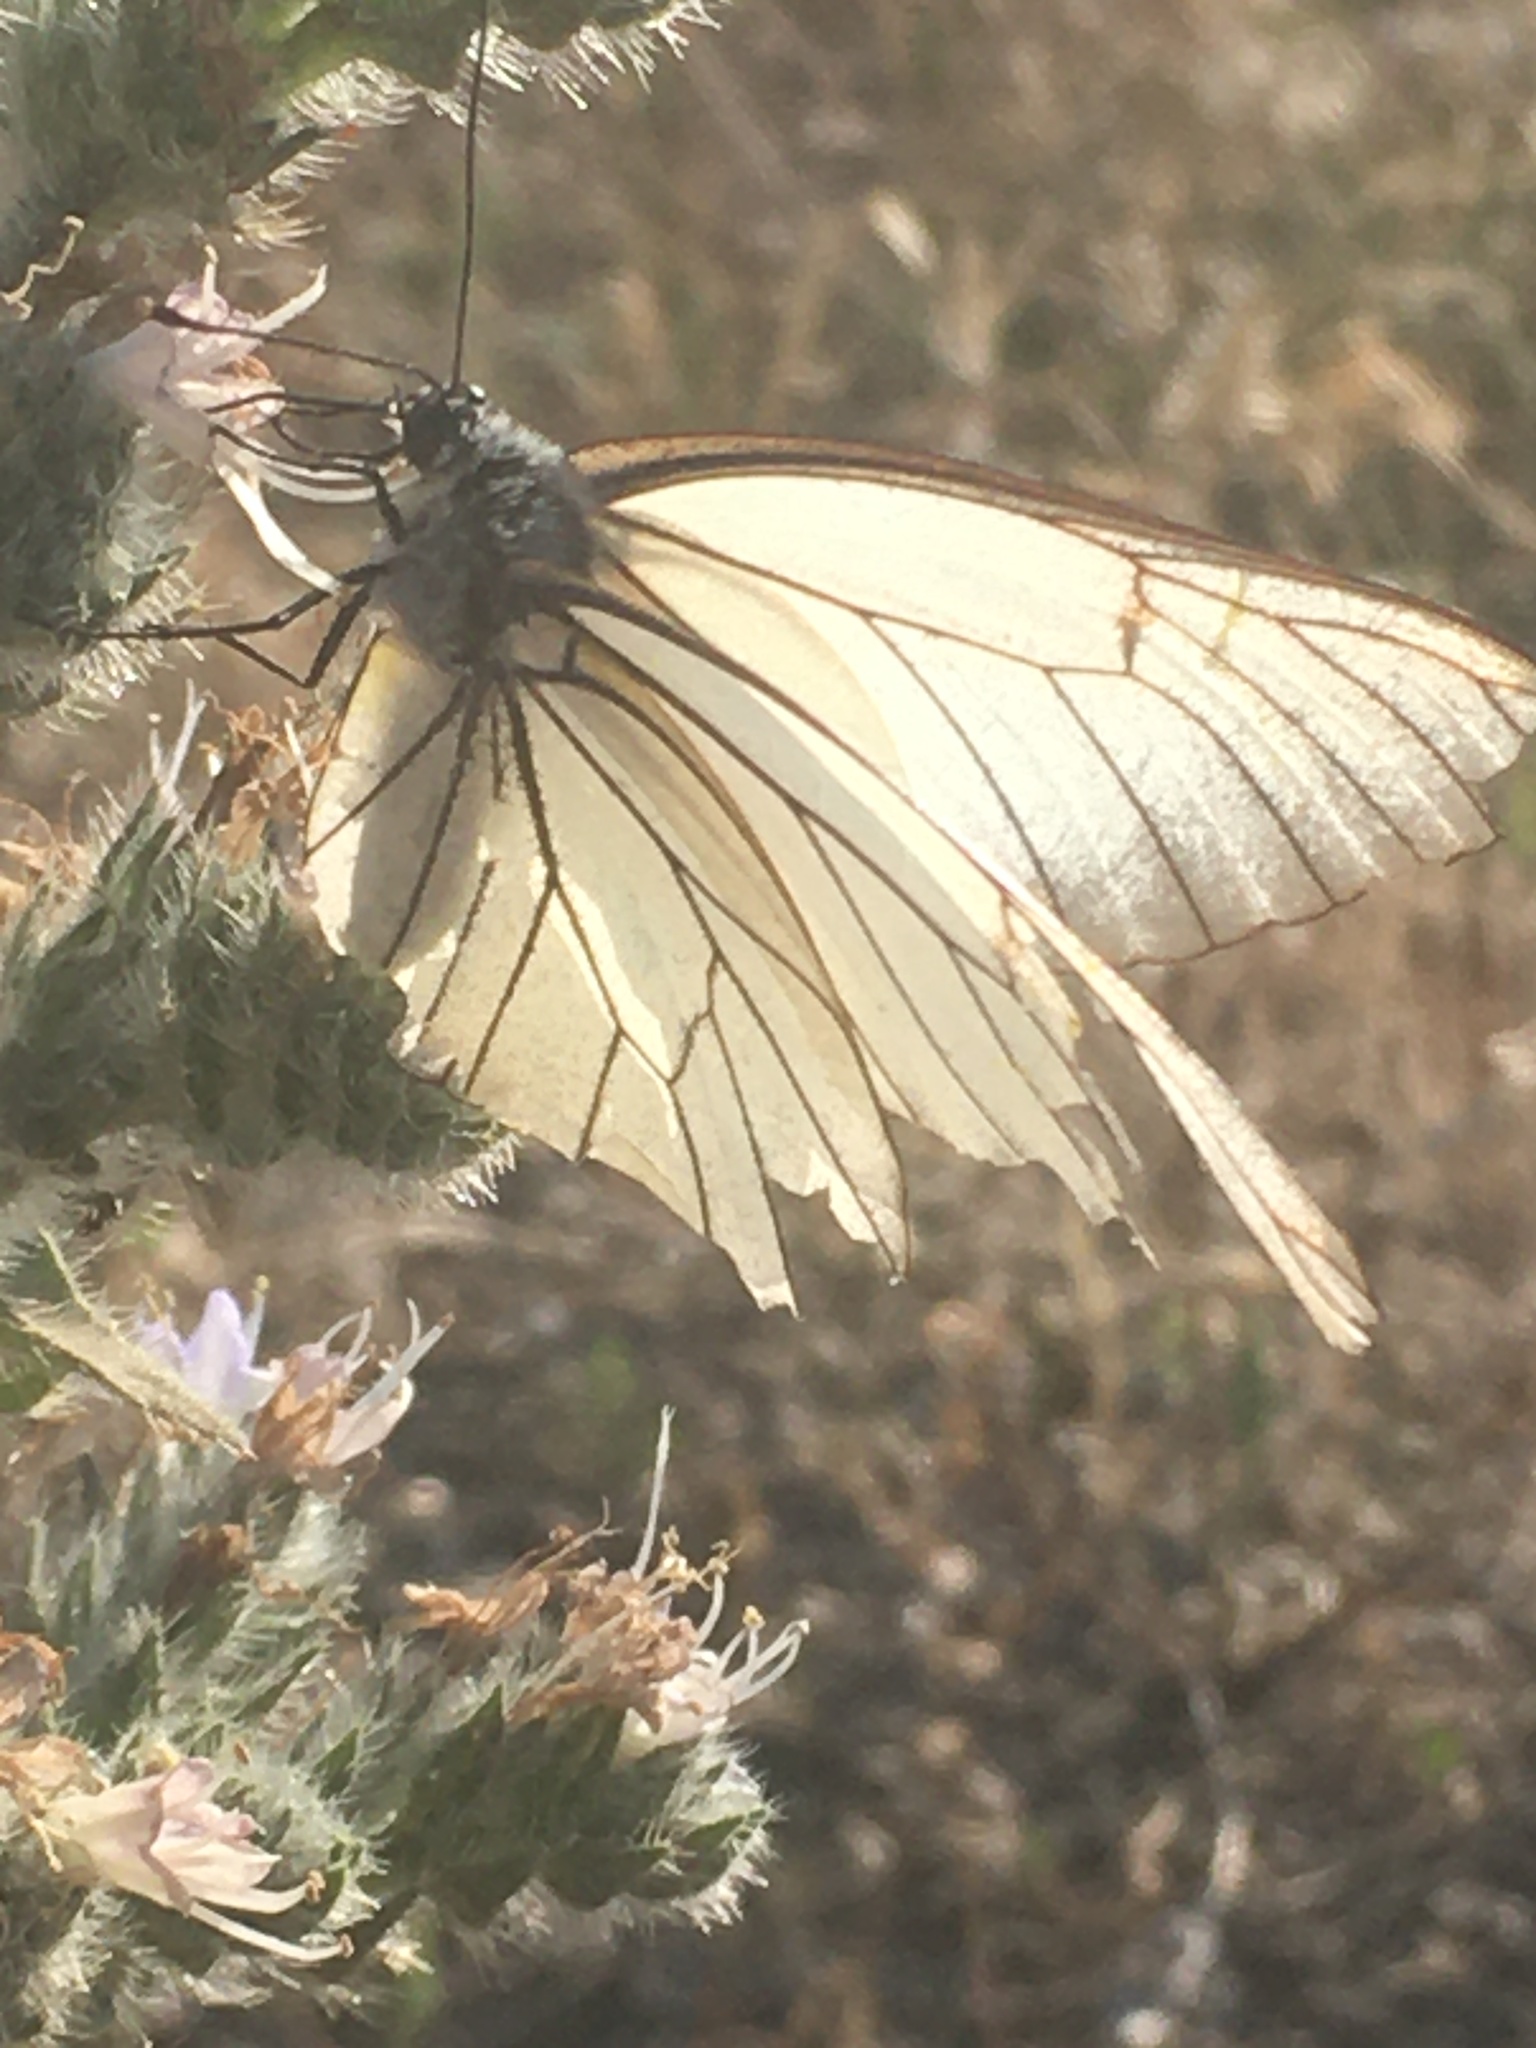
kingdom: Animalia
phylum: Arthropoda
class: Insecta
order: Lepidoptera
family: Pieridae
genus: Aporia
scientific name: Aporia crataegi
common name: Black-veined white
